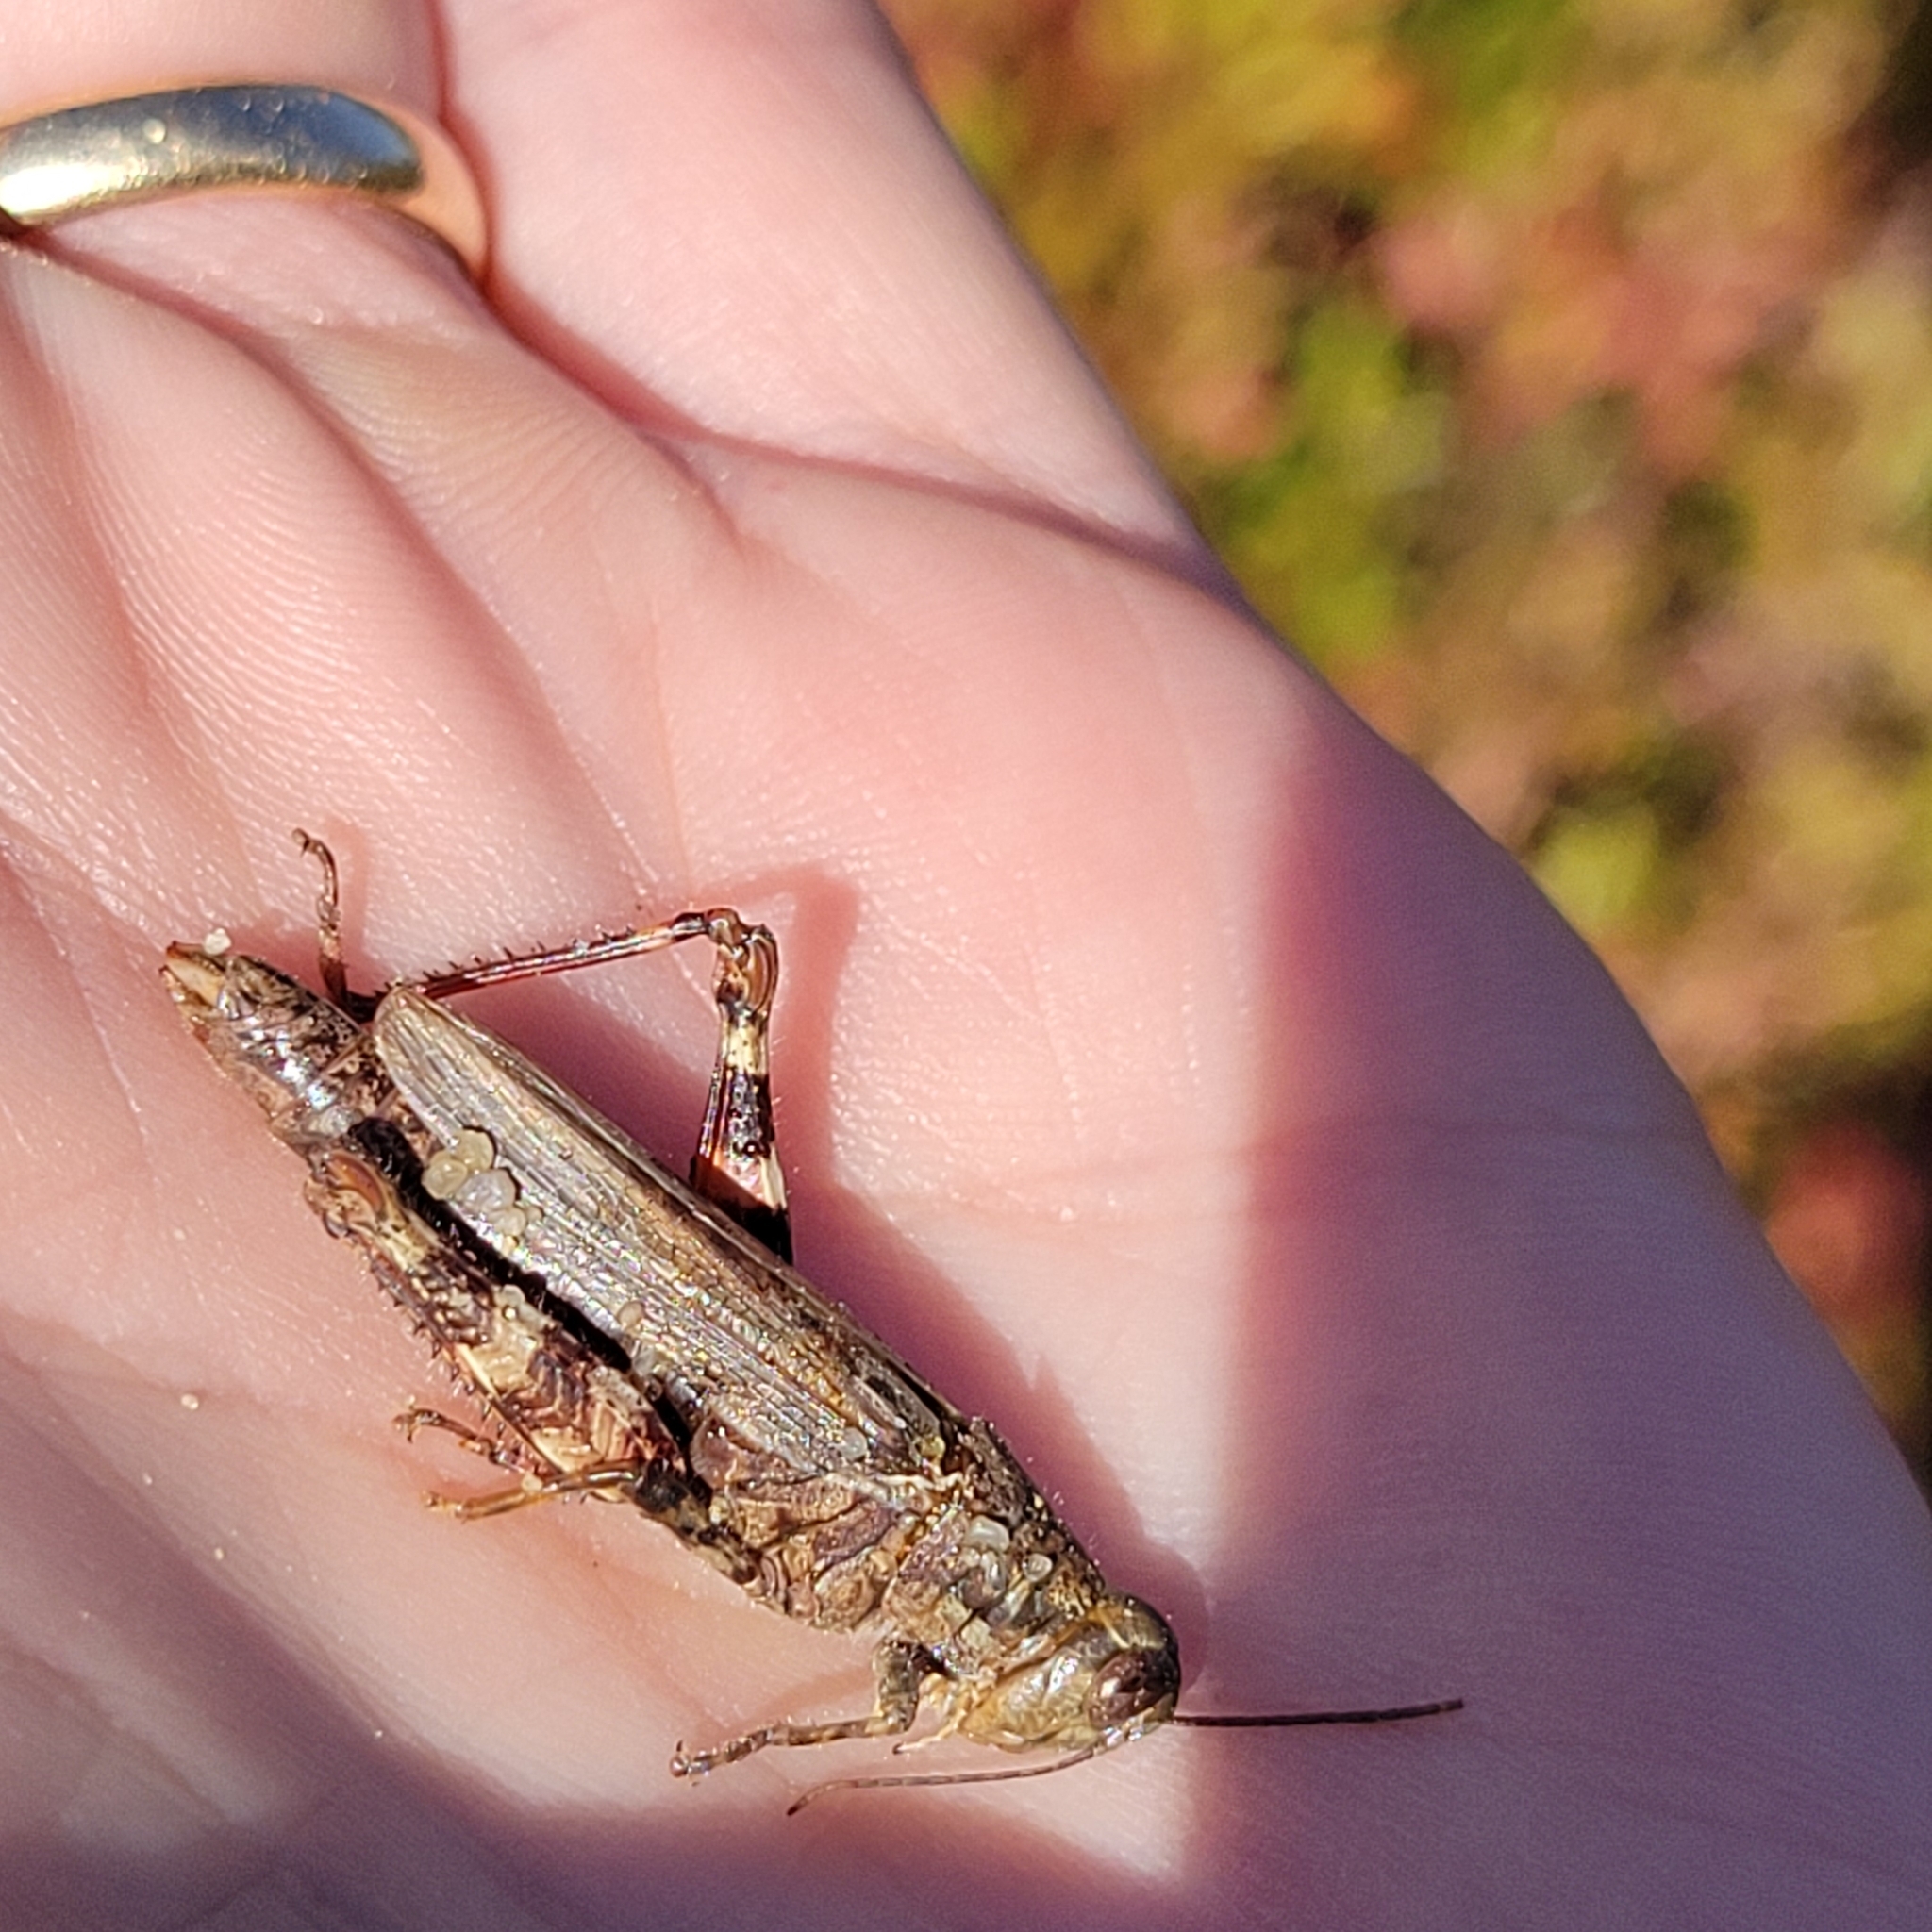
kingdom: Animalia
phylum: Arthropoda
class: Insecta
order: Orthoptera
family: Acrididae
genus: Melanoplus
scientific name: Melanoplus punctulatus
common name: Pine-tree spur-throat grasshopper
